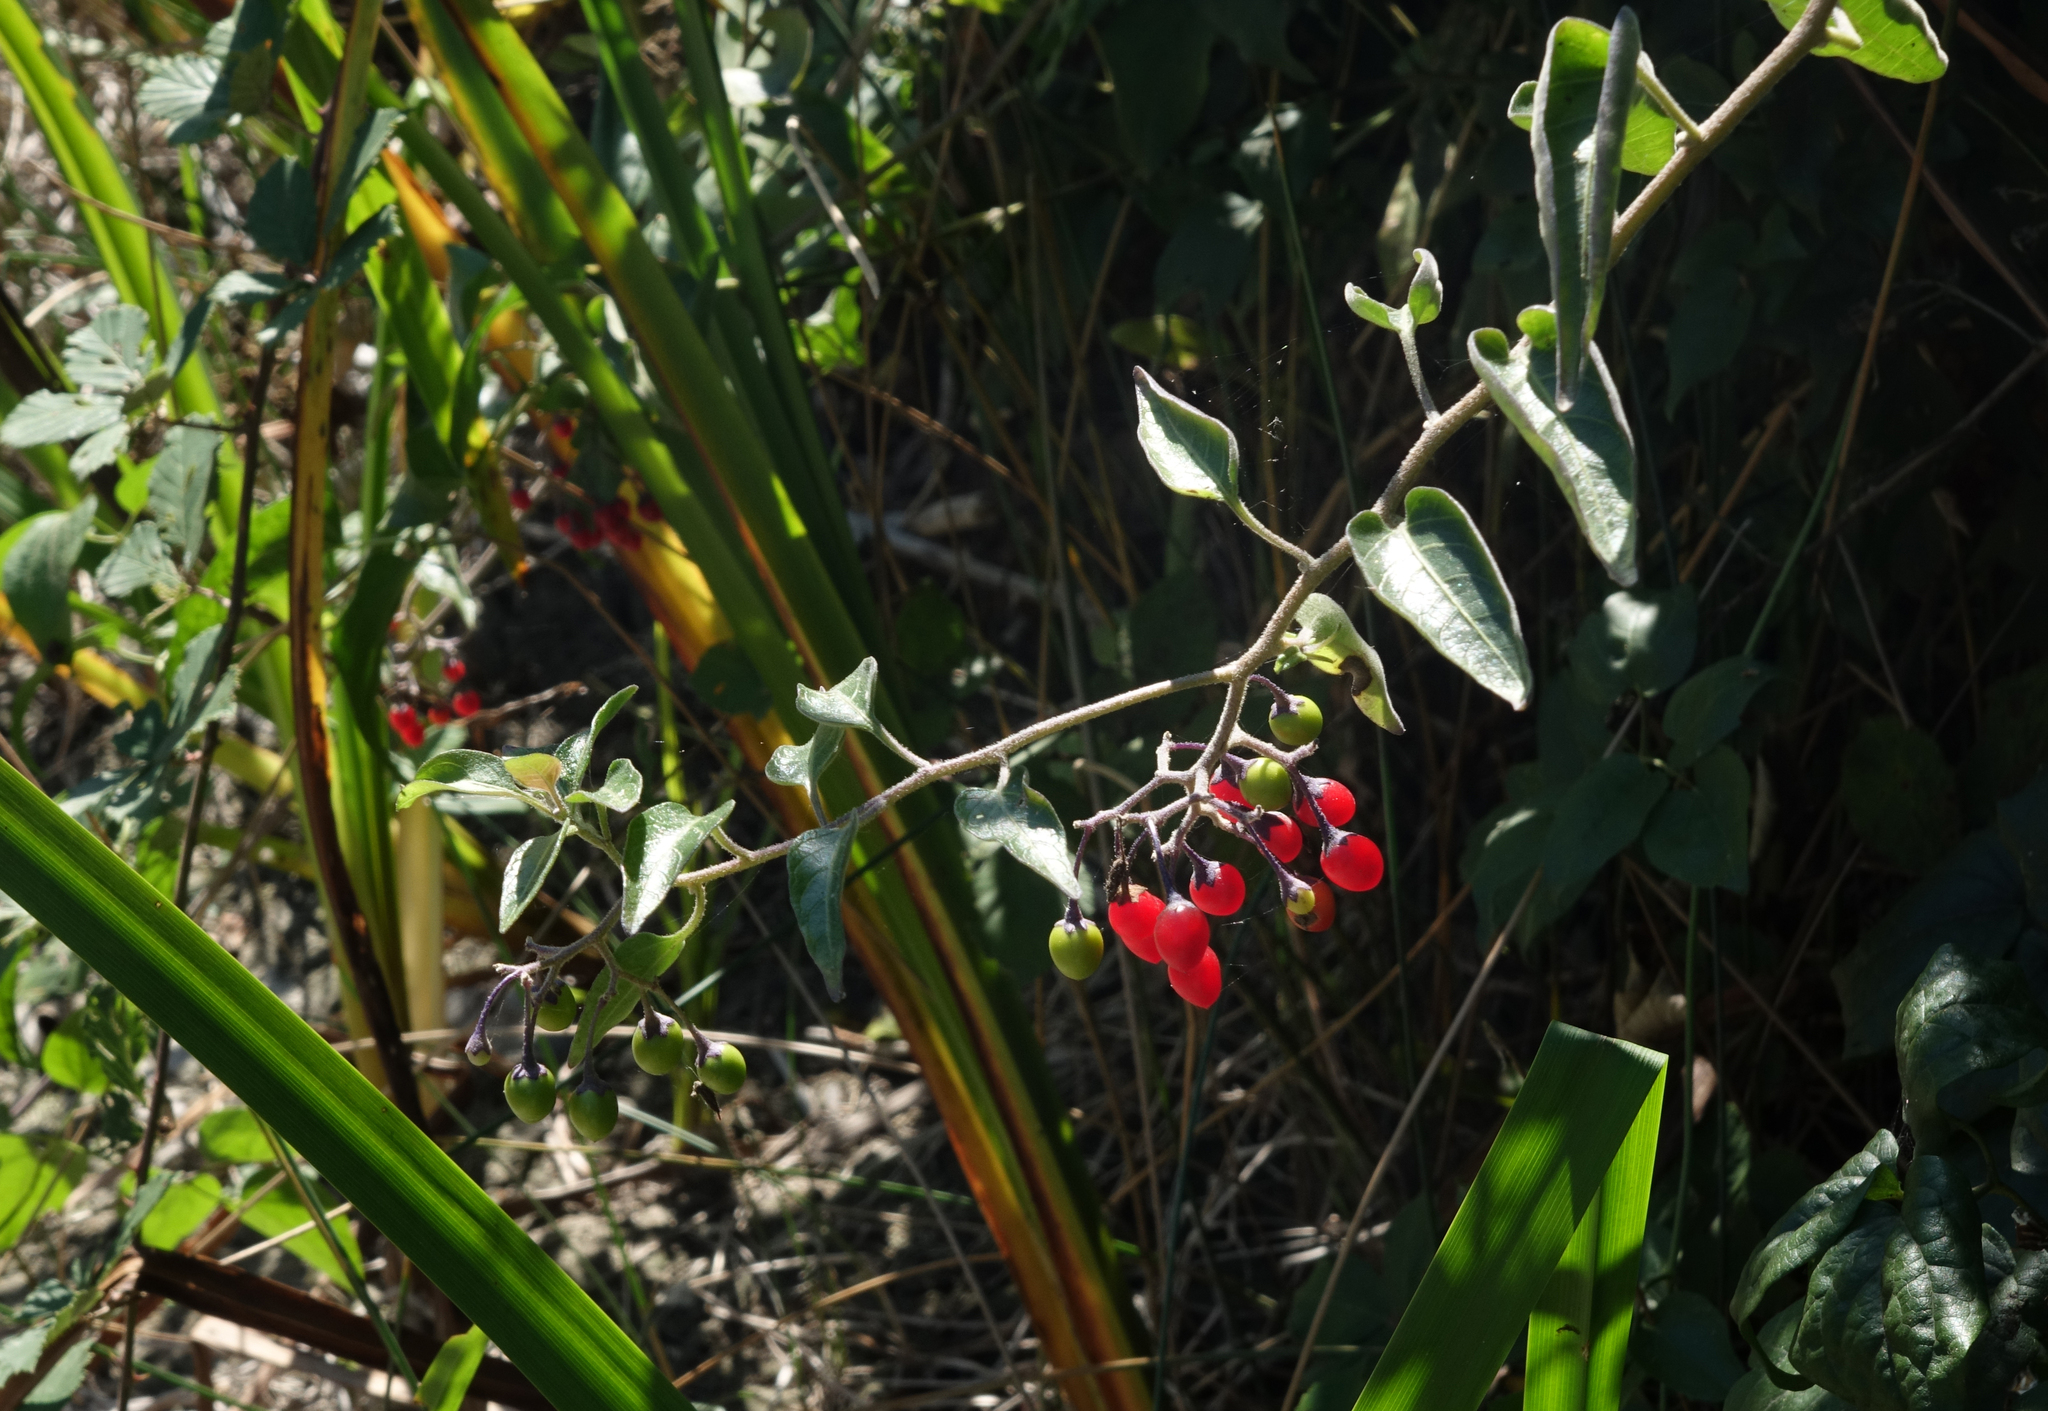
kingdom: Plantae
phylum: Tracheophyta
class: Magnoliopsida
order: Solanales
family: Solanaceae
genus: Solanum
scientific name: Solanum dulcamara
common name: Climbing nightshade
